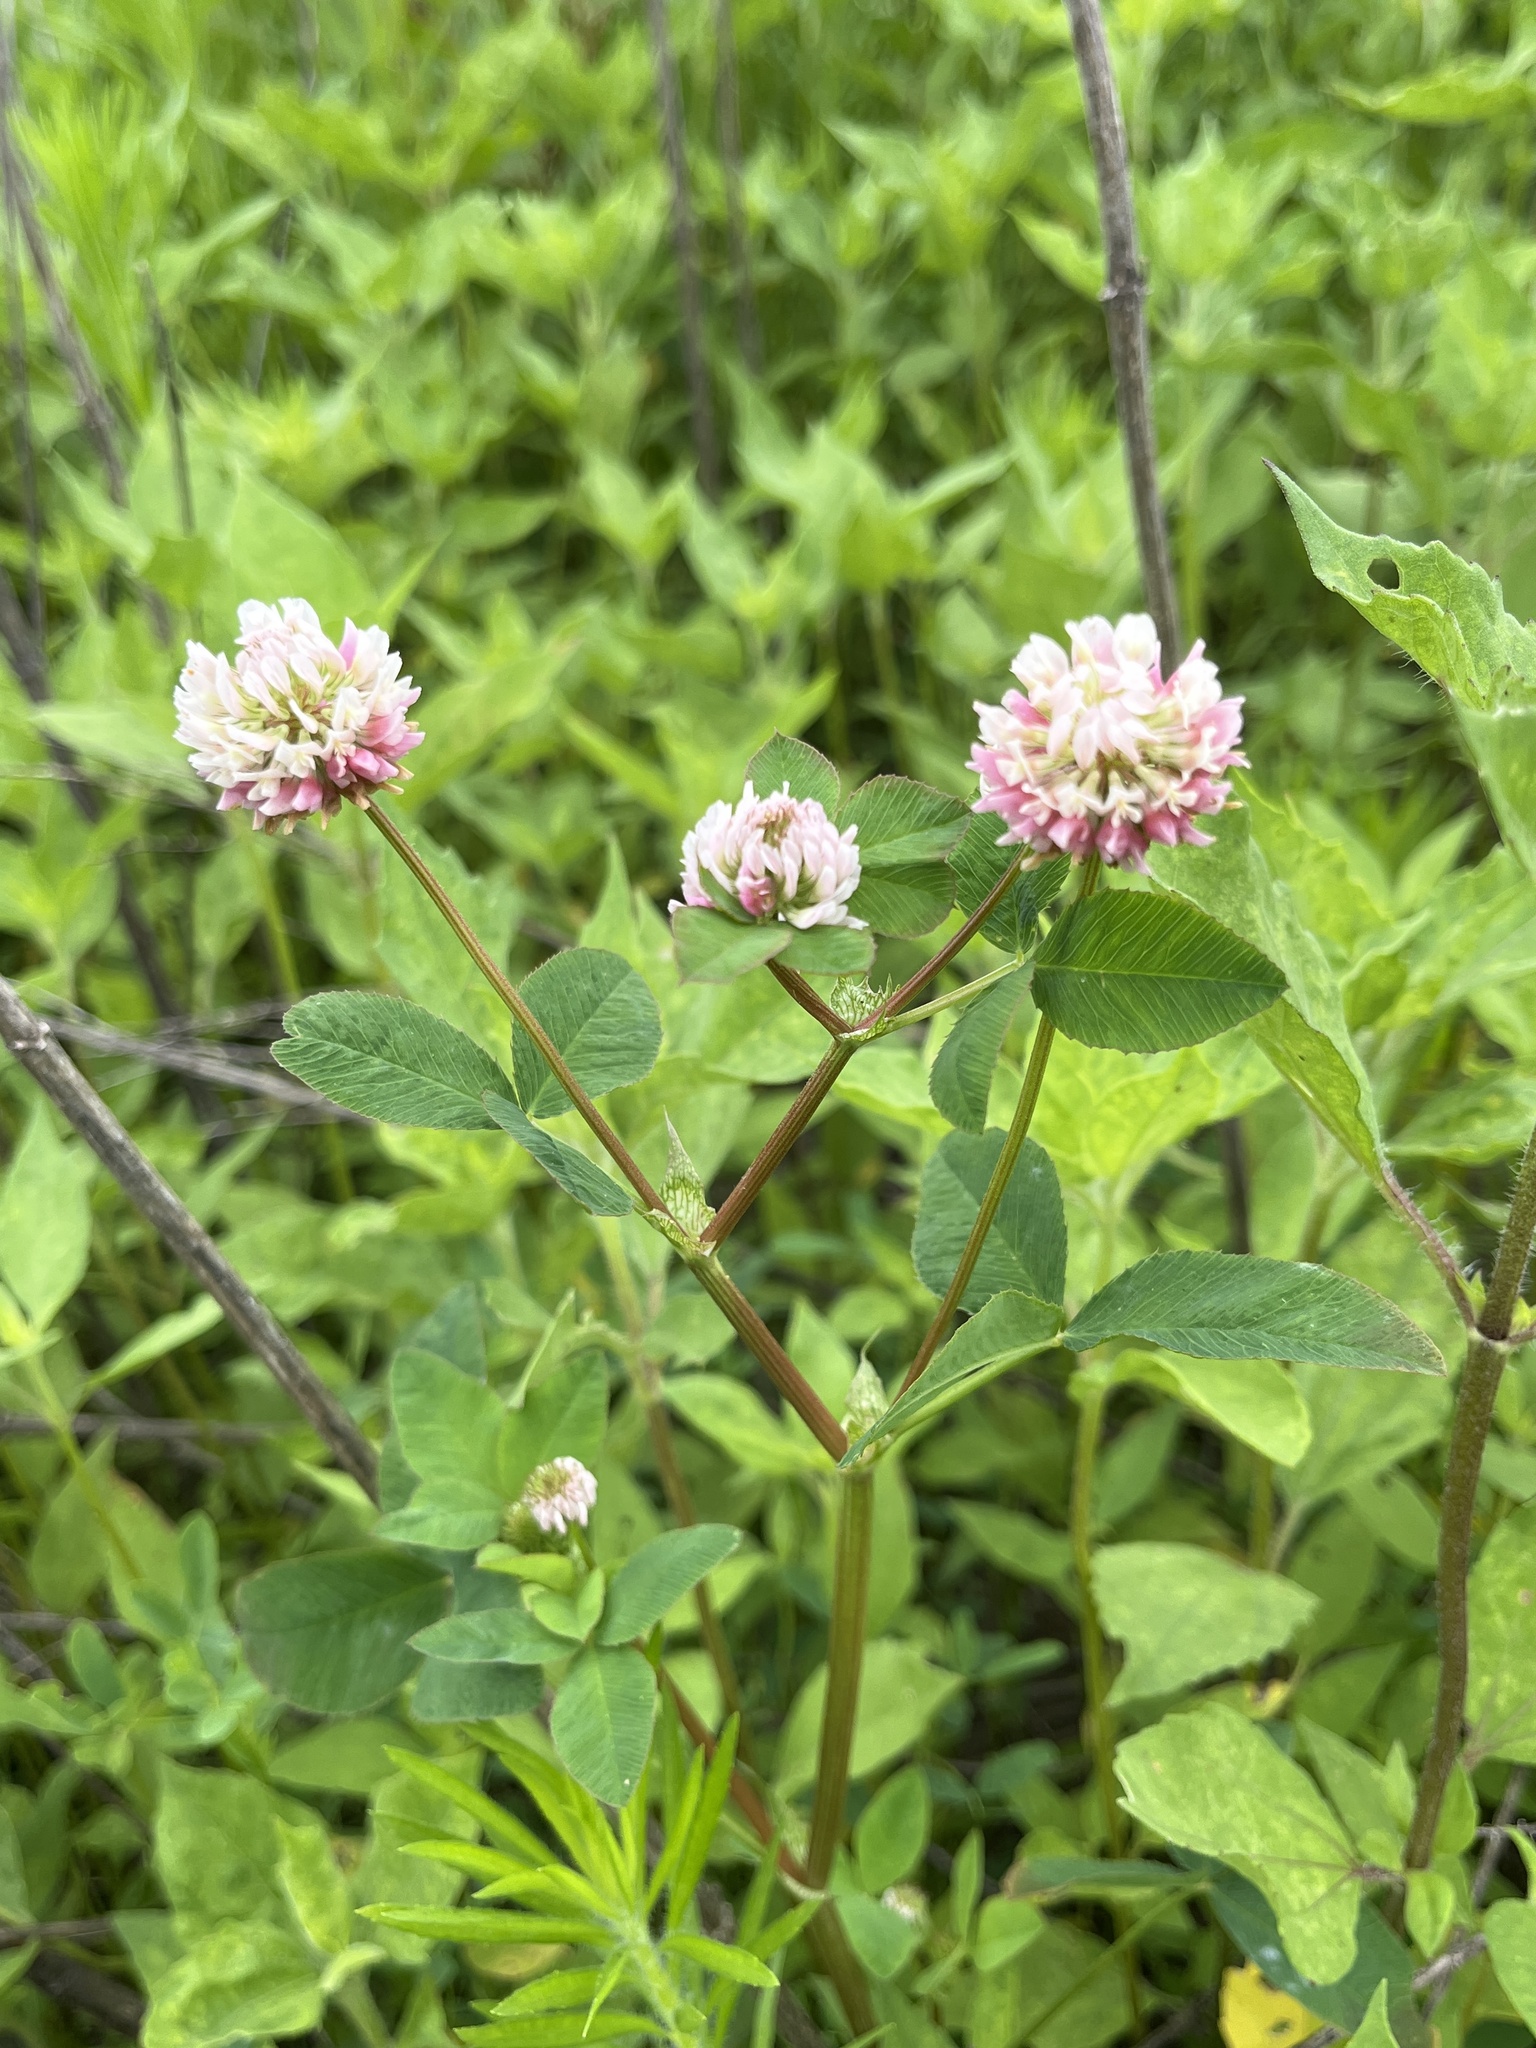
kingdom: Plantae
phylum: Tracheophyta
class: Magnoliopsida
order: Fabales
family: Fabaceae
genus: Trifolium
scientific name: Trifolium hybridum
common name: Alsike clover
